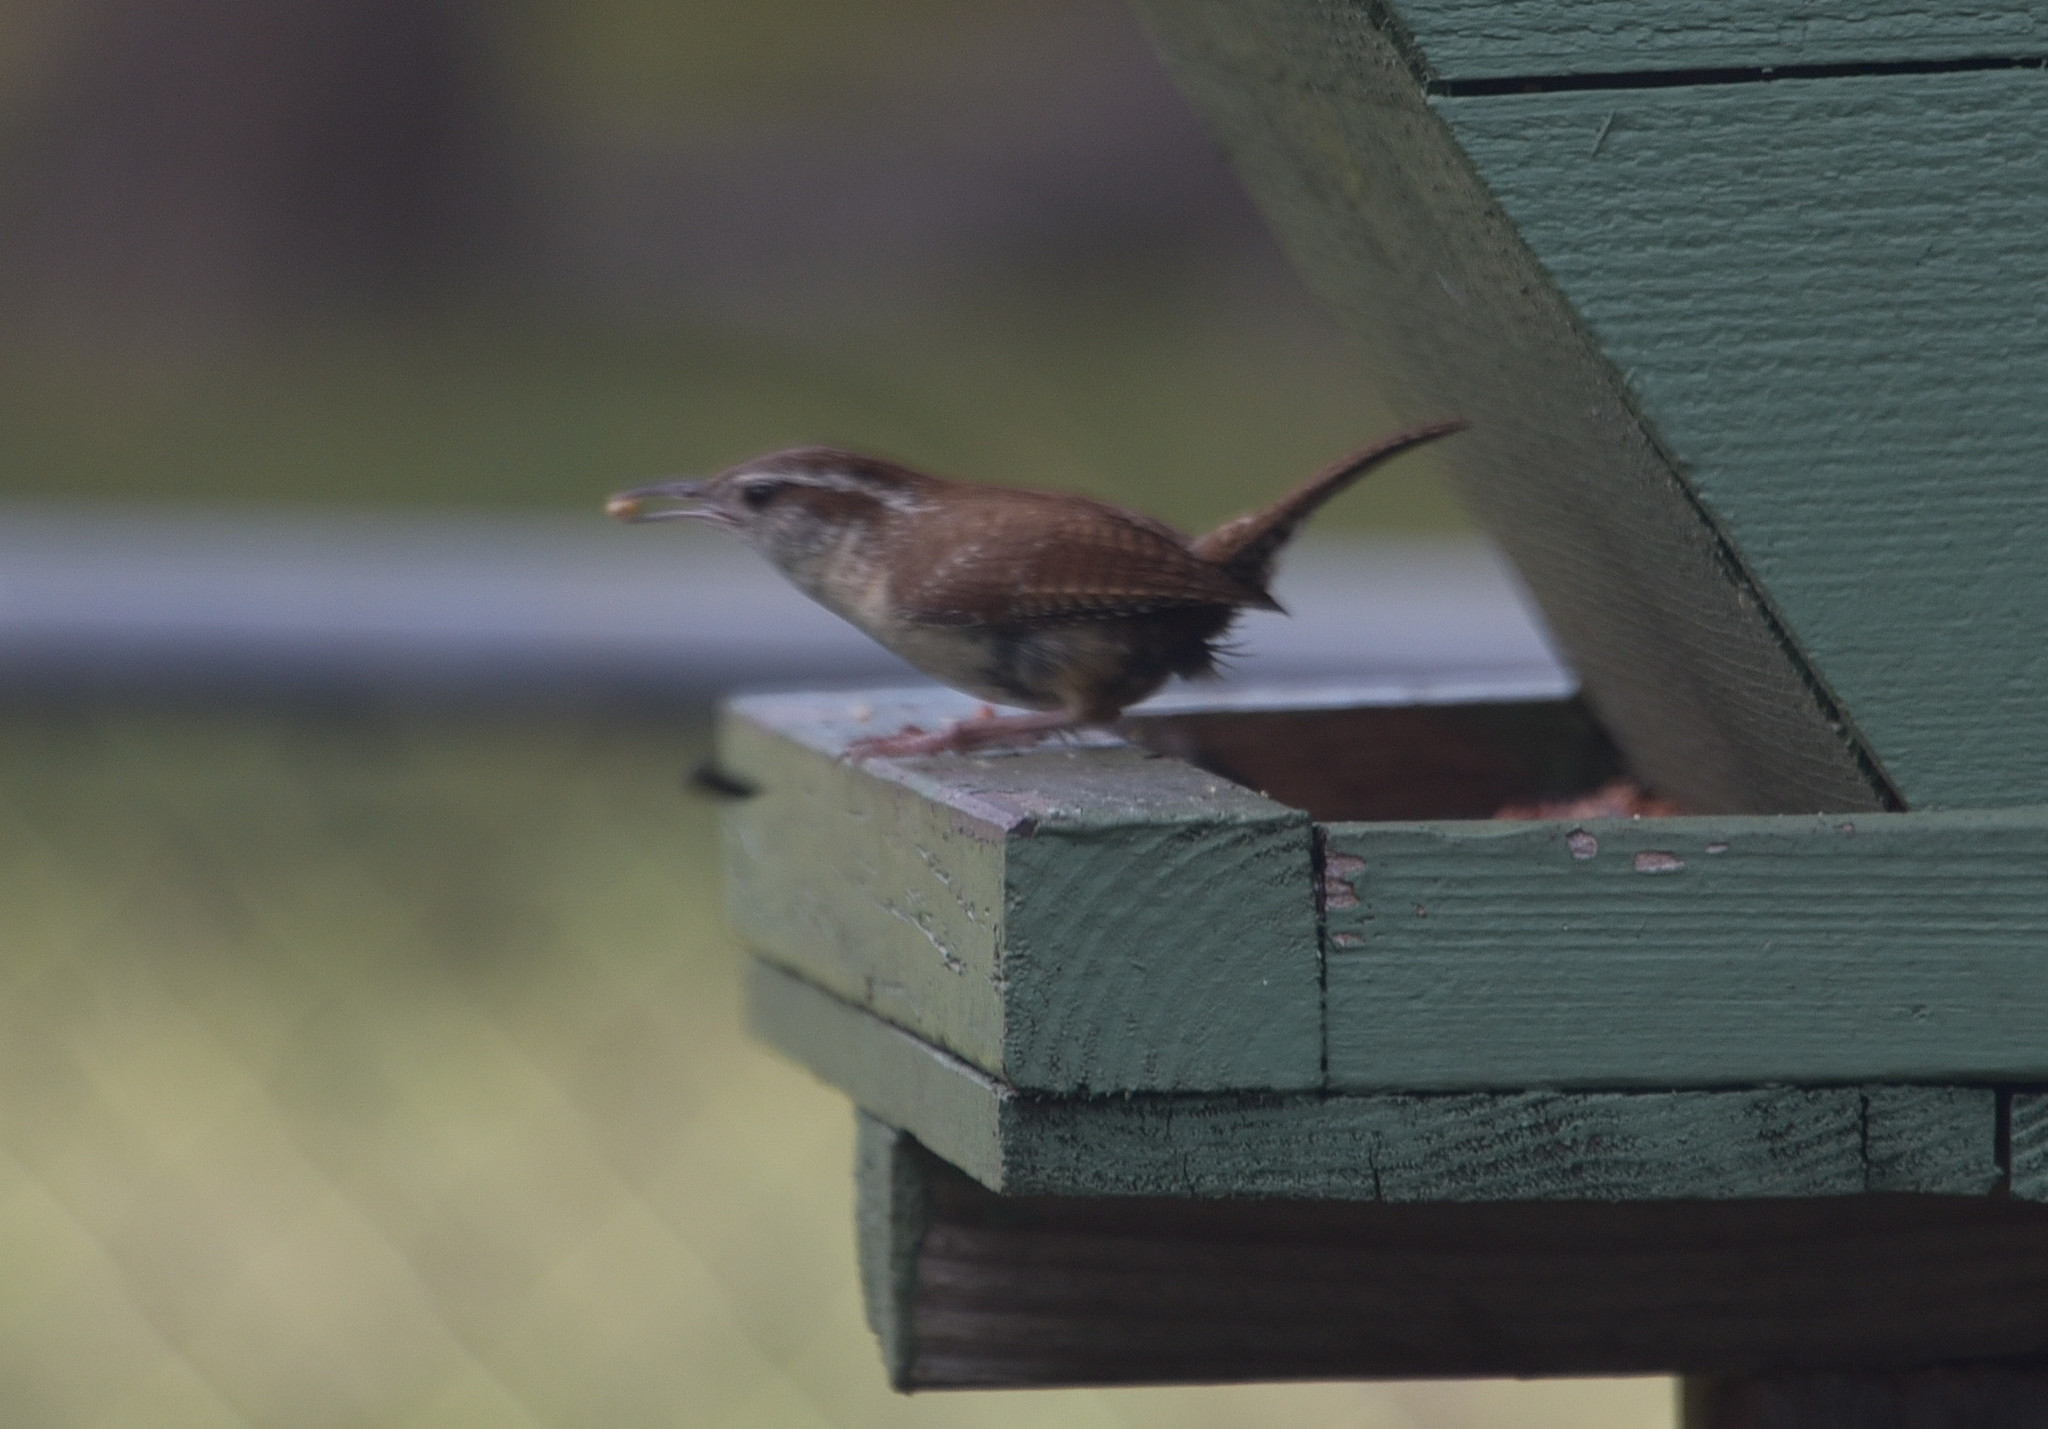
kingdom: Animalia
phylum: Chordata
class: Aves
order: Passeriformes
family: Troglodytidae
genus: Thryothorus
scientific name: Thryothorus ludovicianus
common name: Carolina wren
